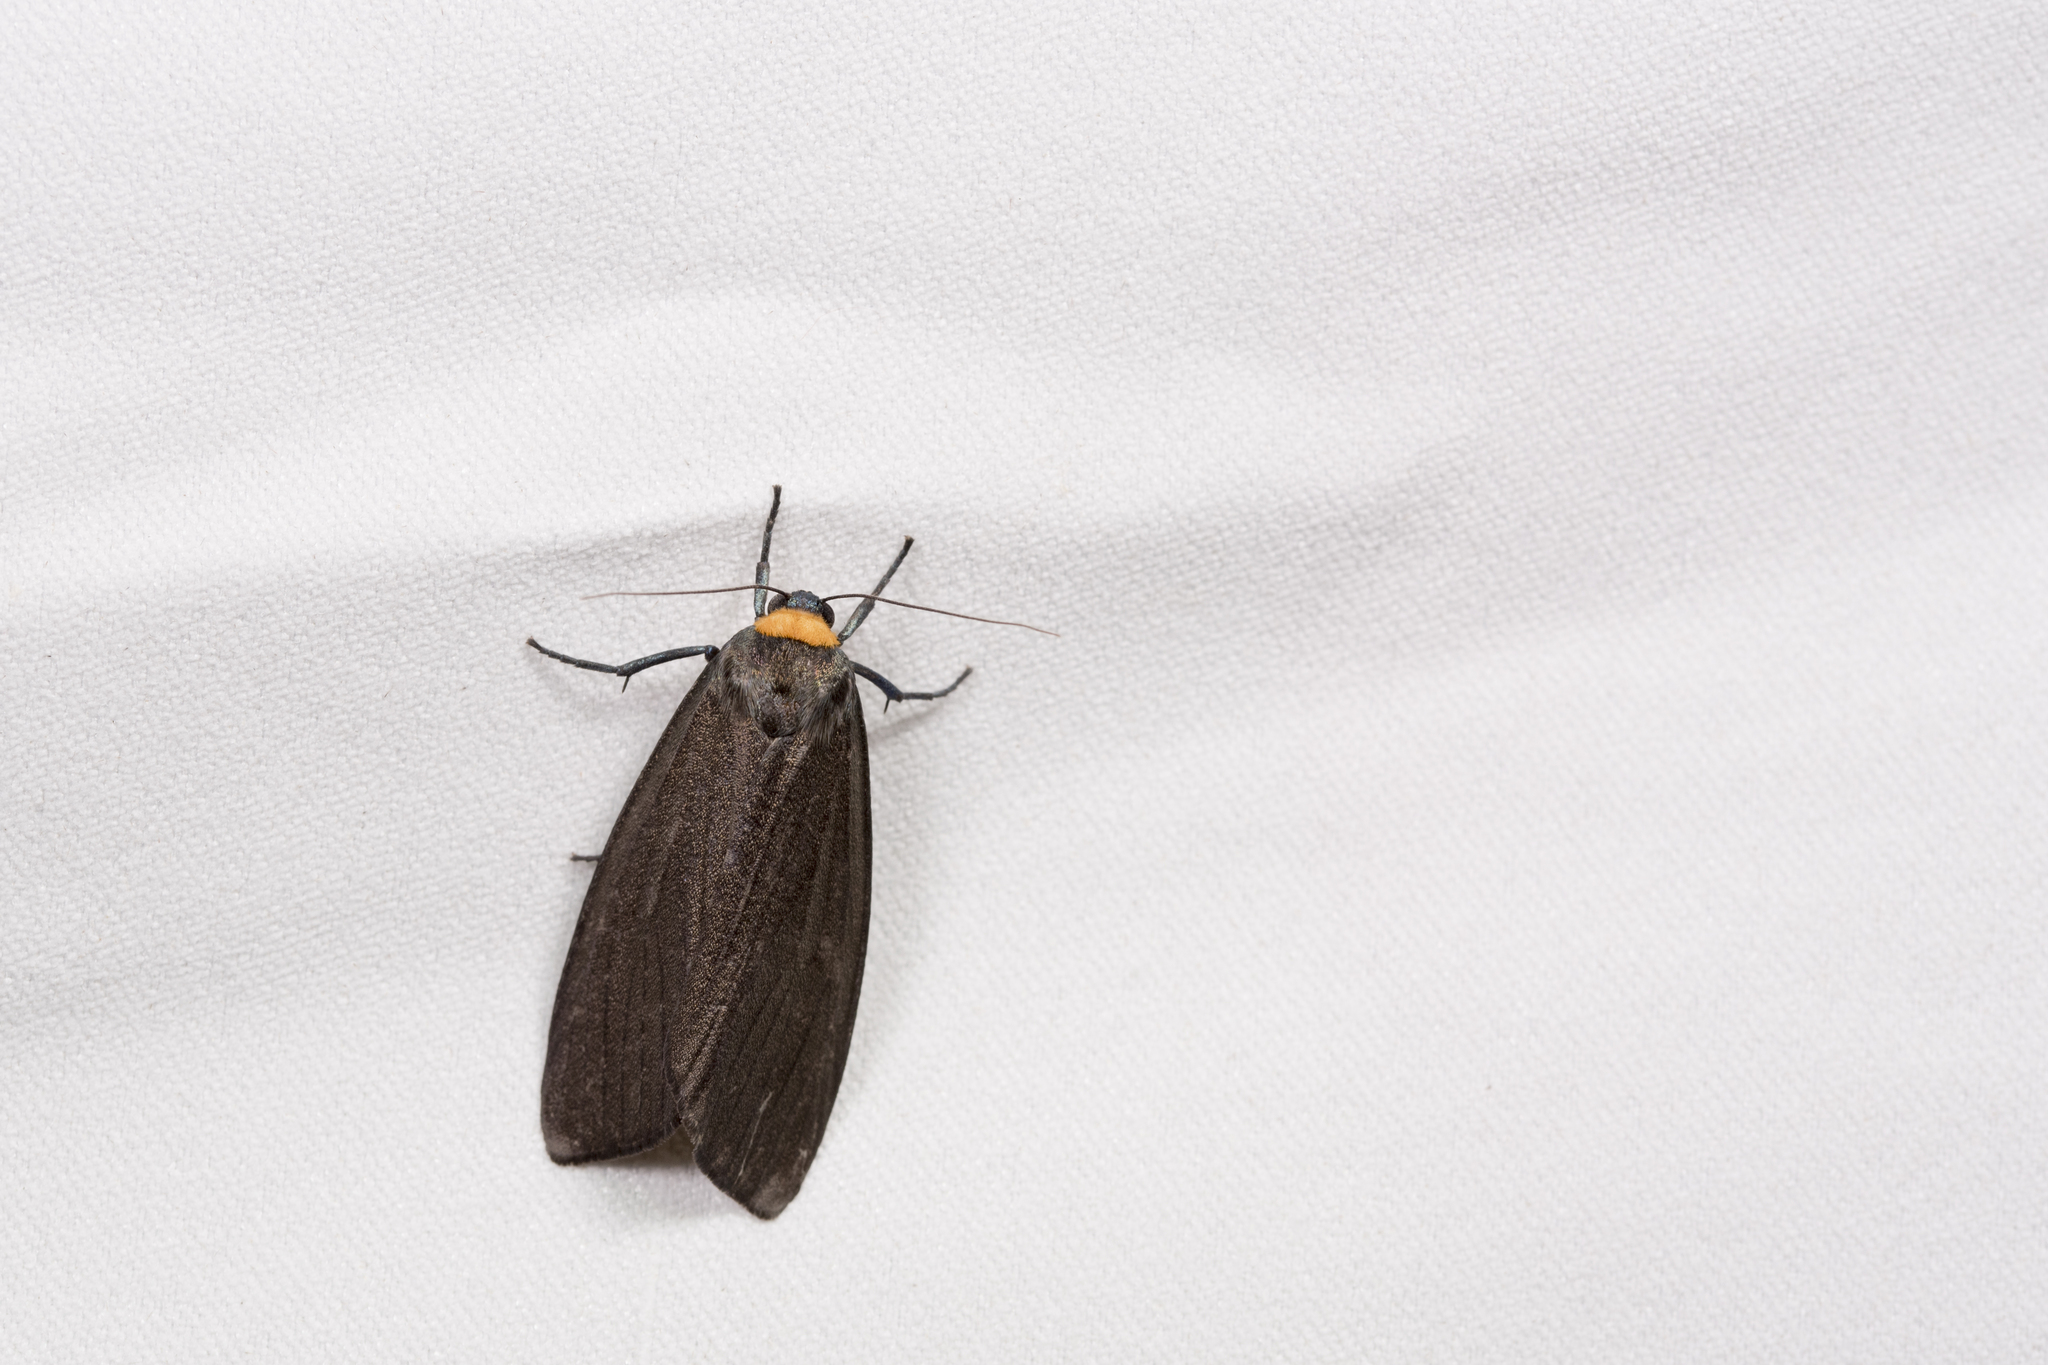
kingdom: Animalia
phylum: Arthropoda
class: Insecta
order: Lepidoptera
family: Erebidae
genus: Macrobrochis
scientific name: Macrobrochis staudingeri
